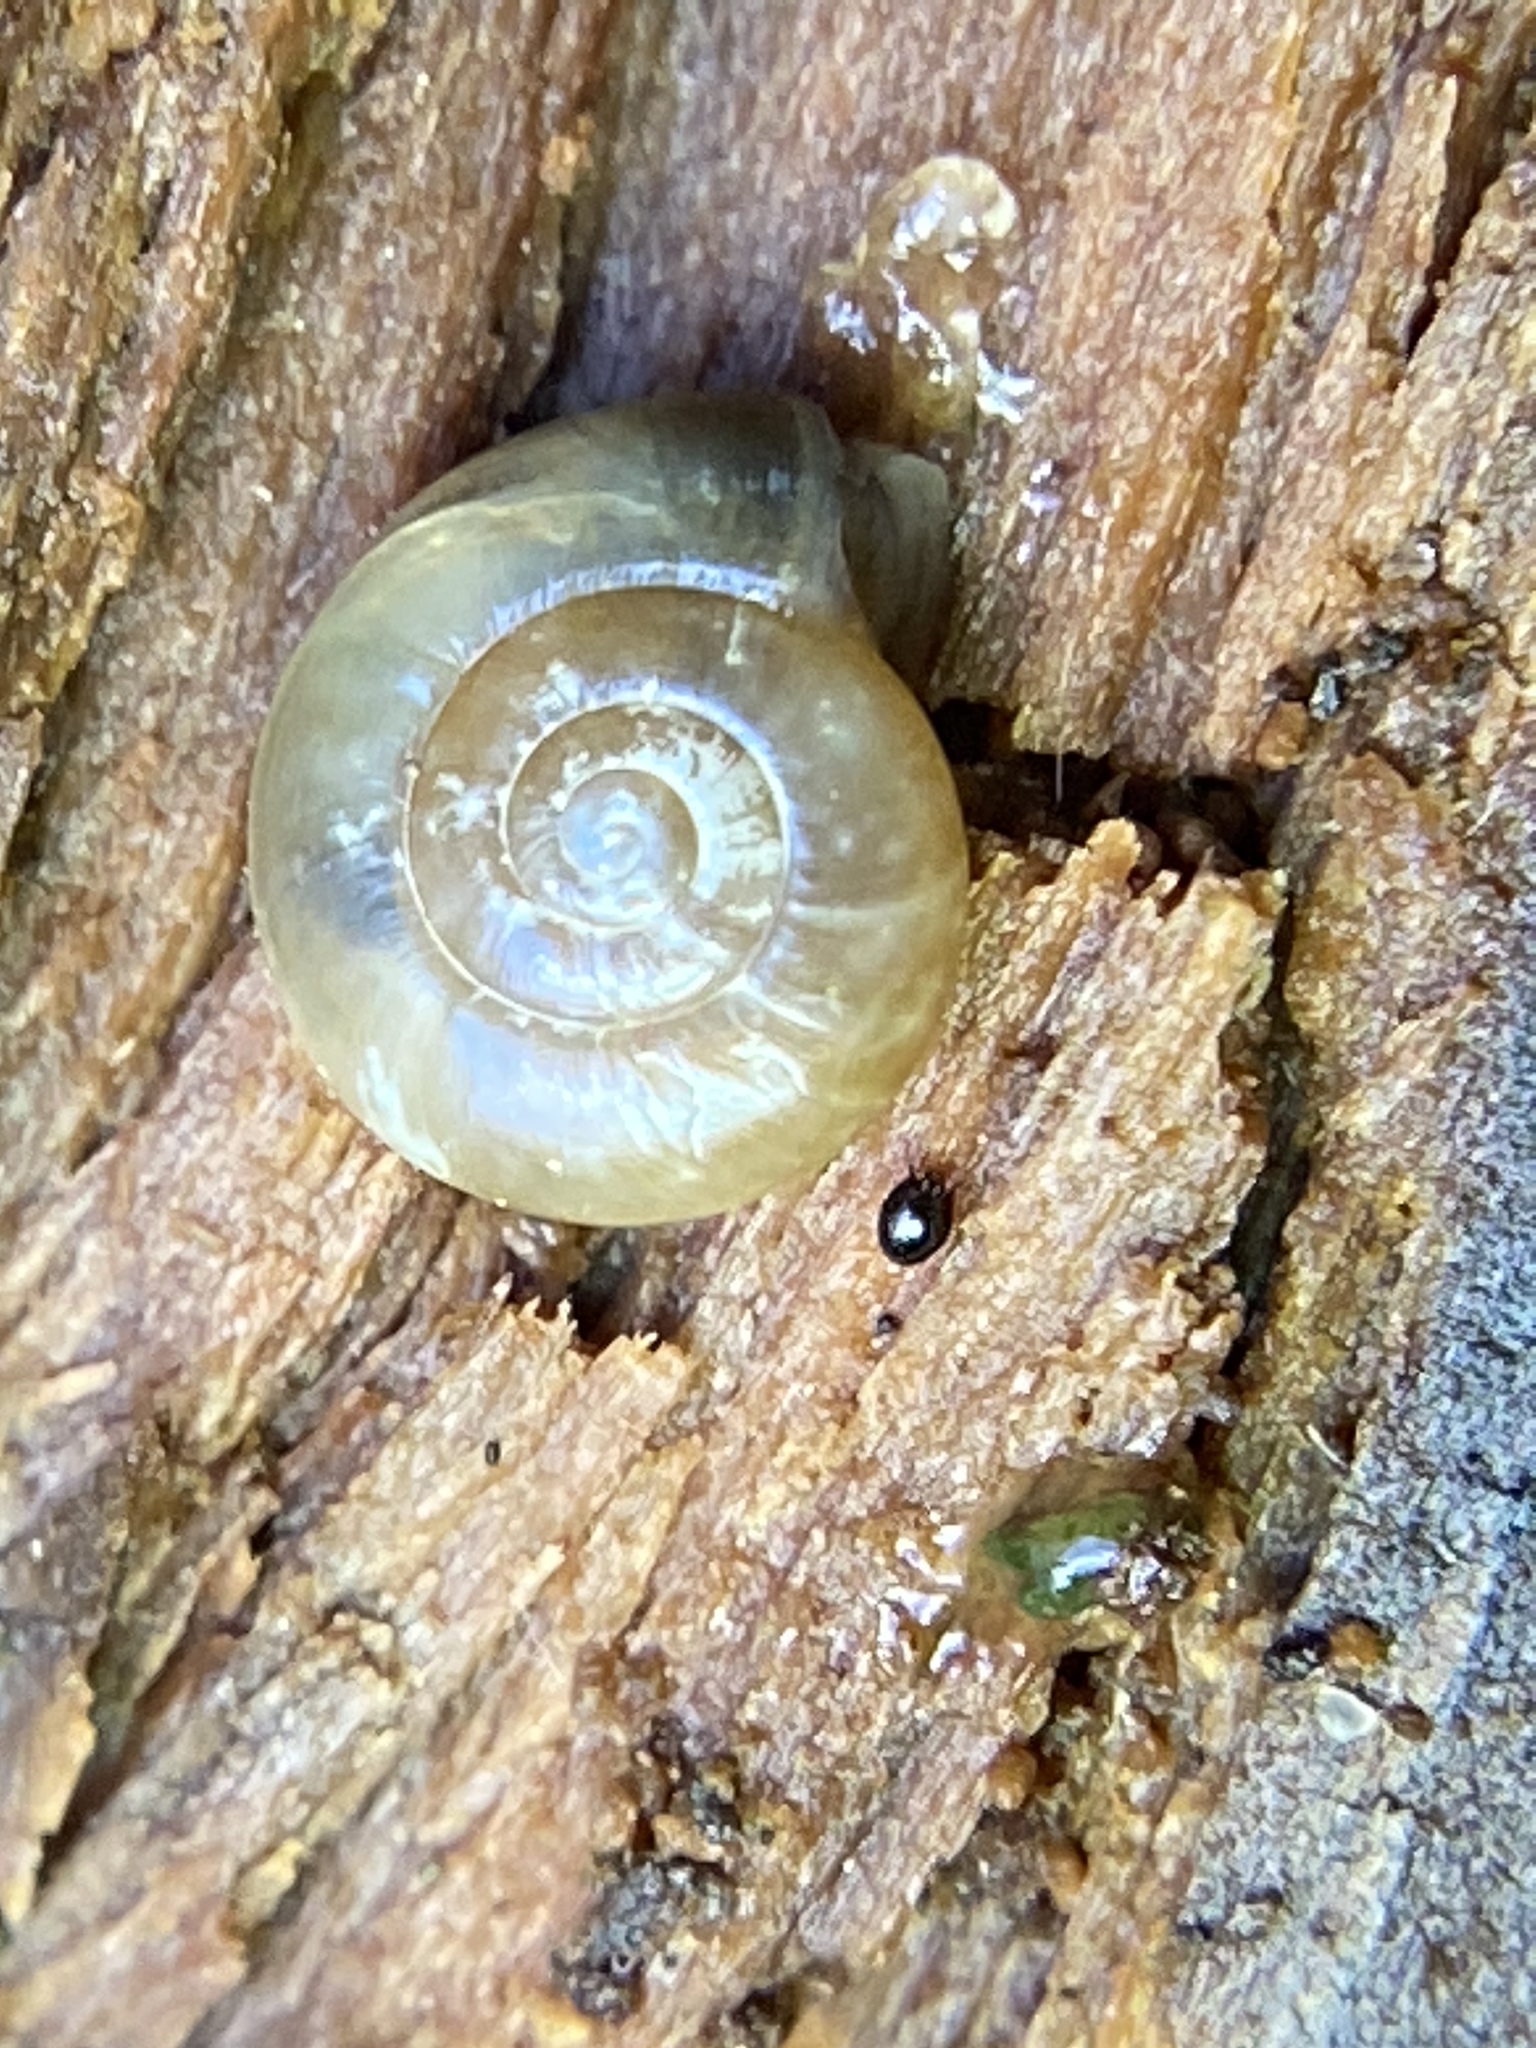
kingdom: Animalia
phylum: Mollusca
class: Gastropoda
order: Stylommatophora
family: Oxychilidae
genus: Oxychilus
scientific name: Oxychilus draparnaudi
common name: Draparnaud's glass snail
